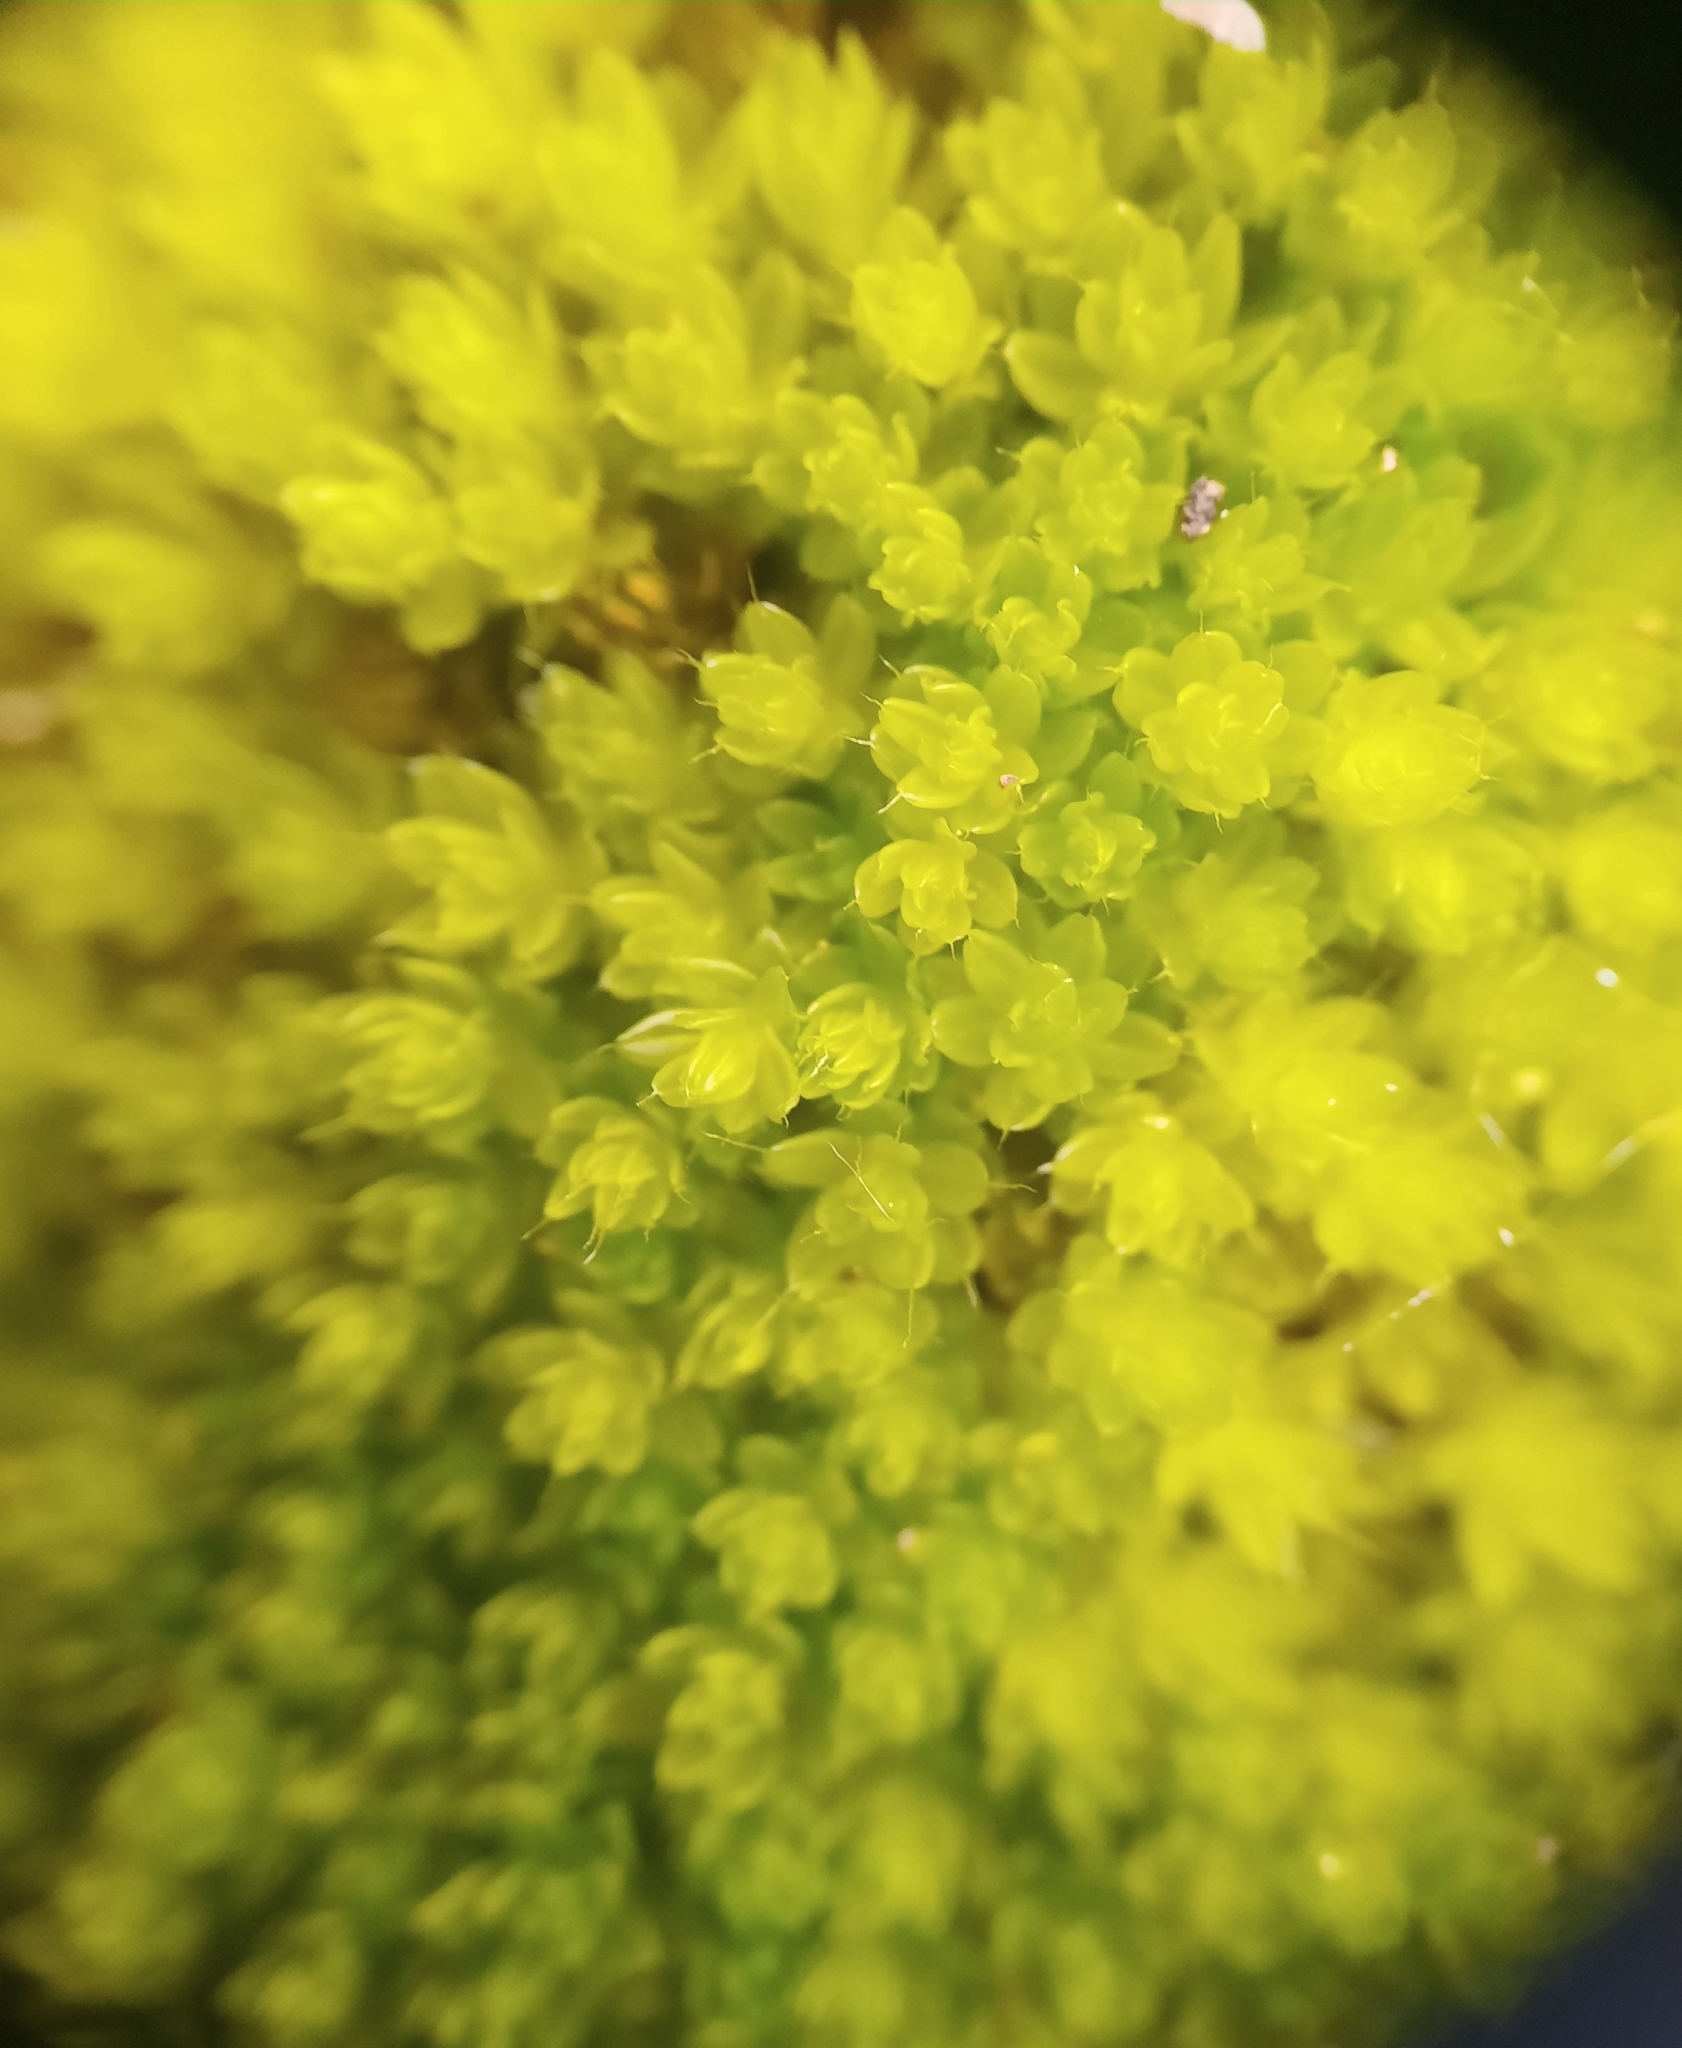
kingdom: Plantae
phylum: Bryophyta
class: Bryopsida
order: Bryales
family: Leptostomataceae
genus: Leptostomum
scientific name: Leptostomum macrocarpon
